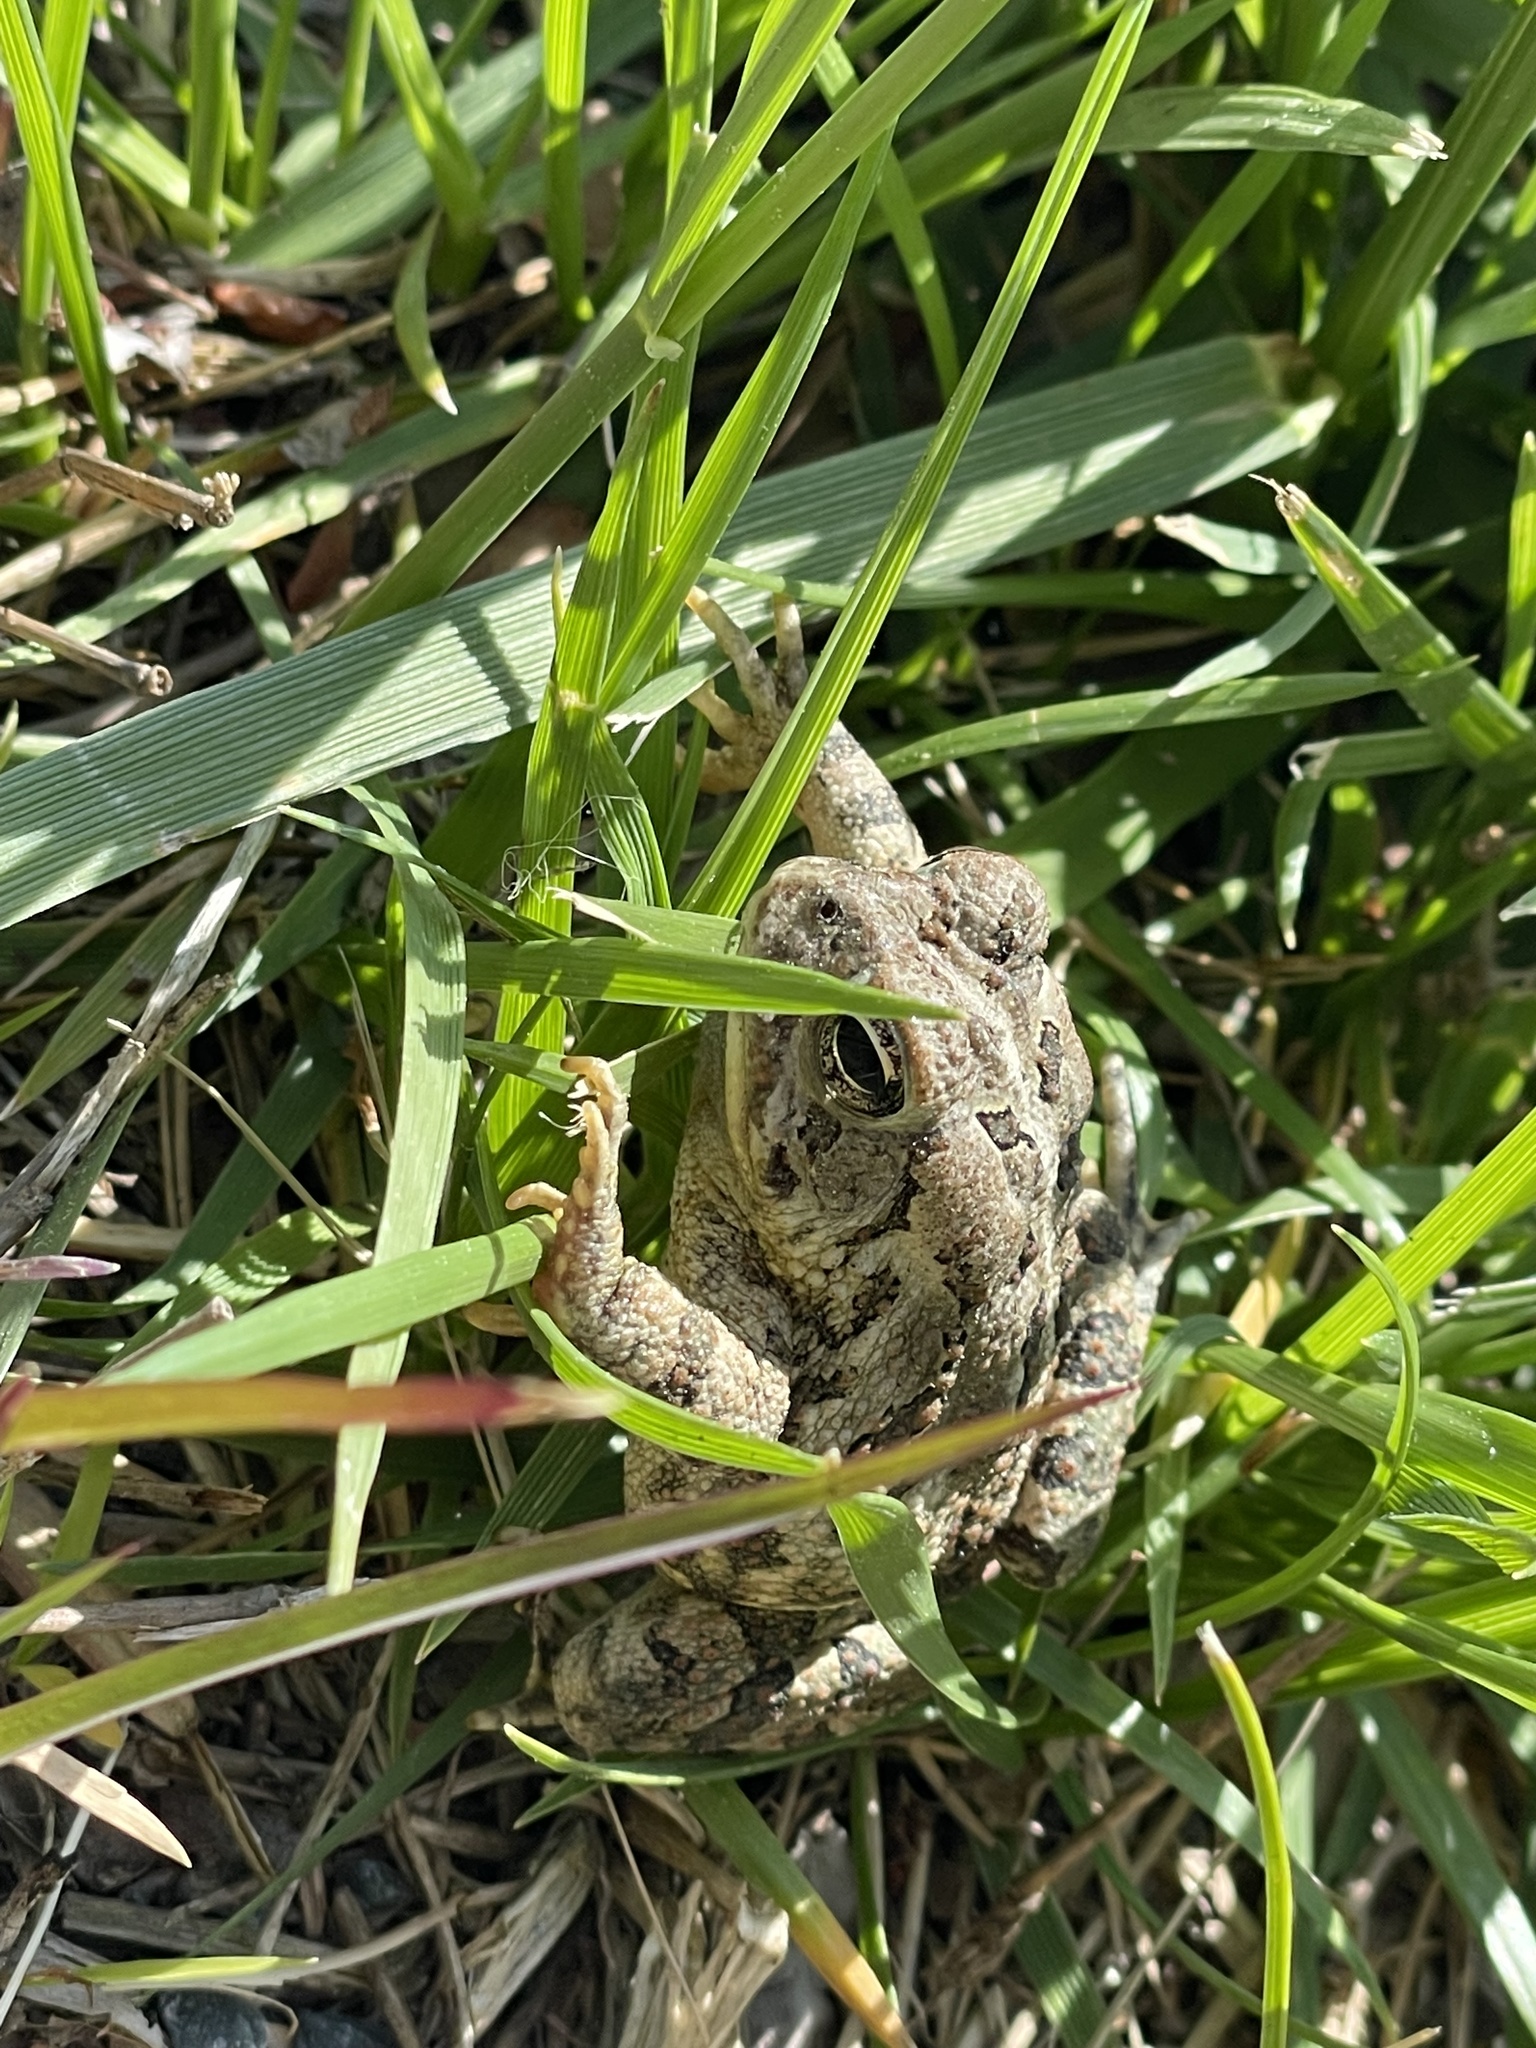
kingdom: Animalia
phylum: Chordata
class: Amphibia
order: Anura
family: Bufonidae
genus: Anaxyrus
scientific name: Anaxyrus fowleri
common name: Fowler's toad
